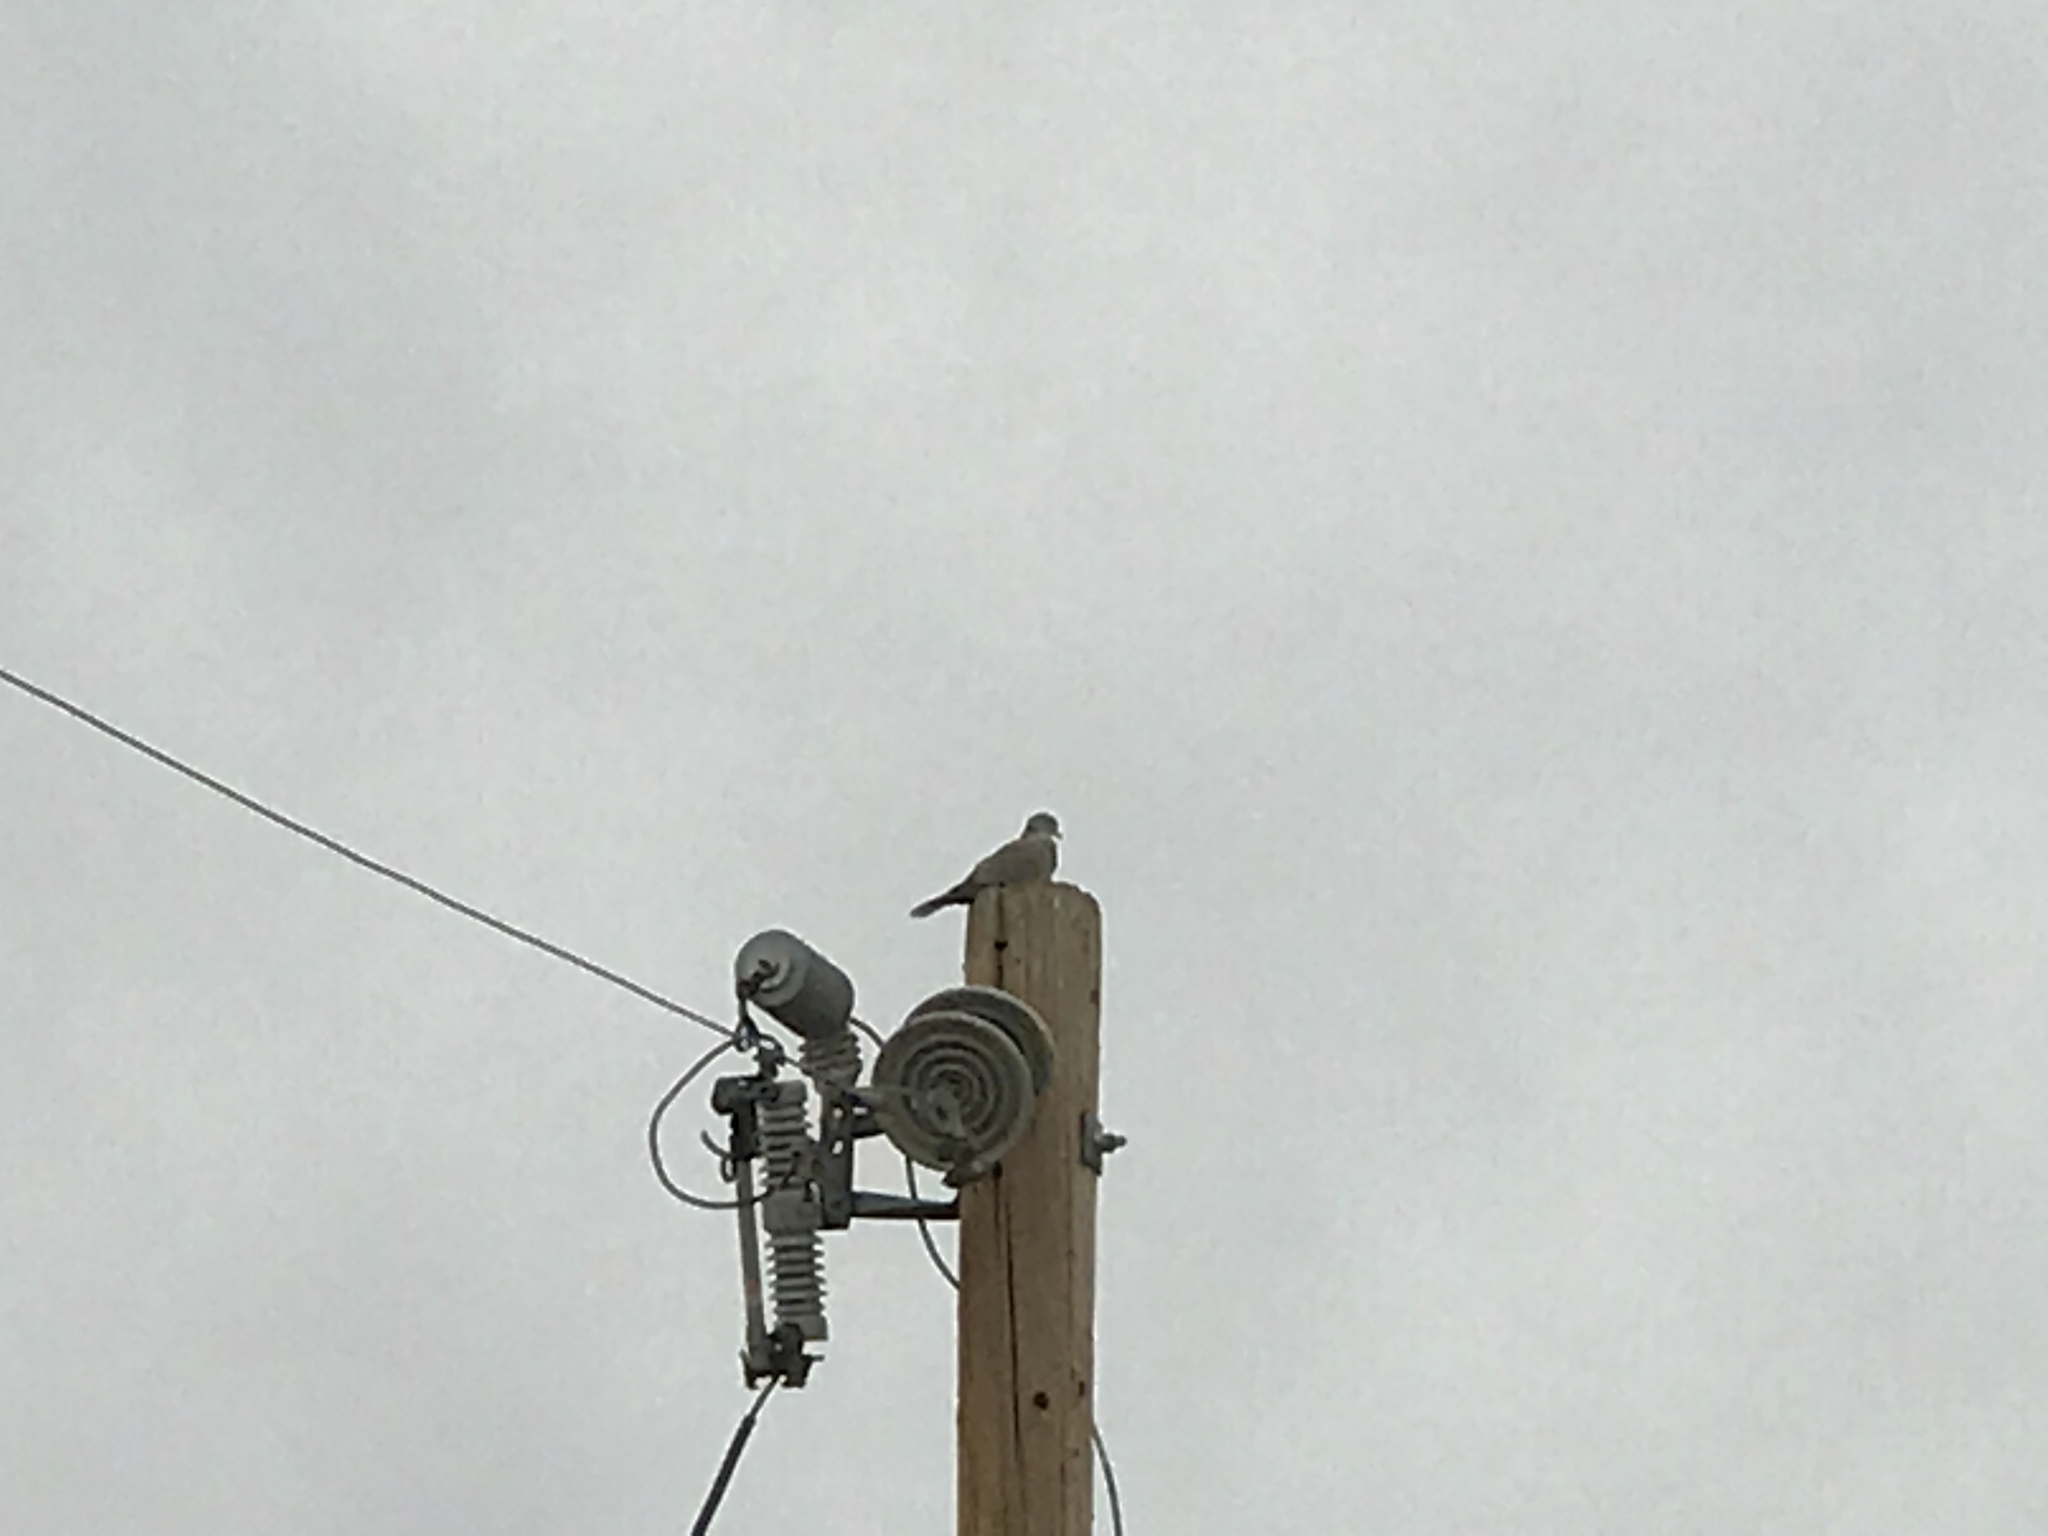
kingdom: Animalia
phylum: Chordata
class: Aves
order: Columbiformes
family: Columbidae
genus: Streptopelia
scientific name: Streptopelia decaocto
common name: Eurasian collared dove
